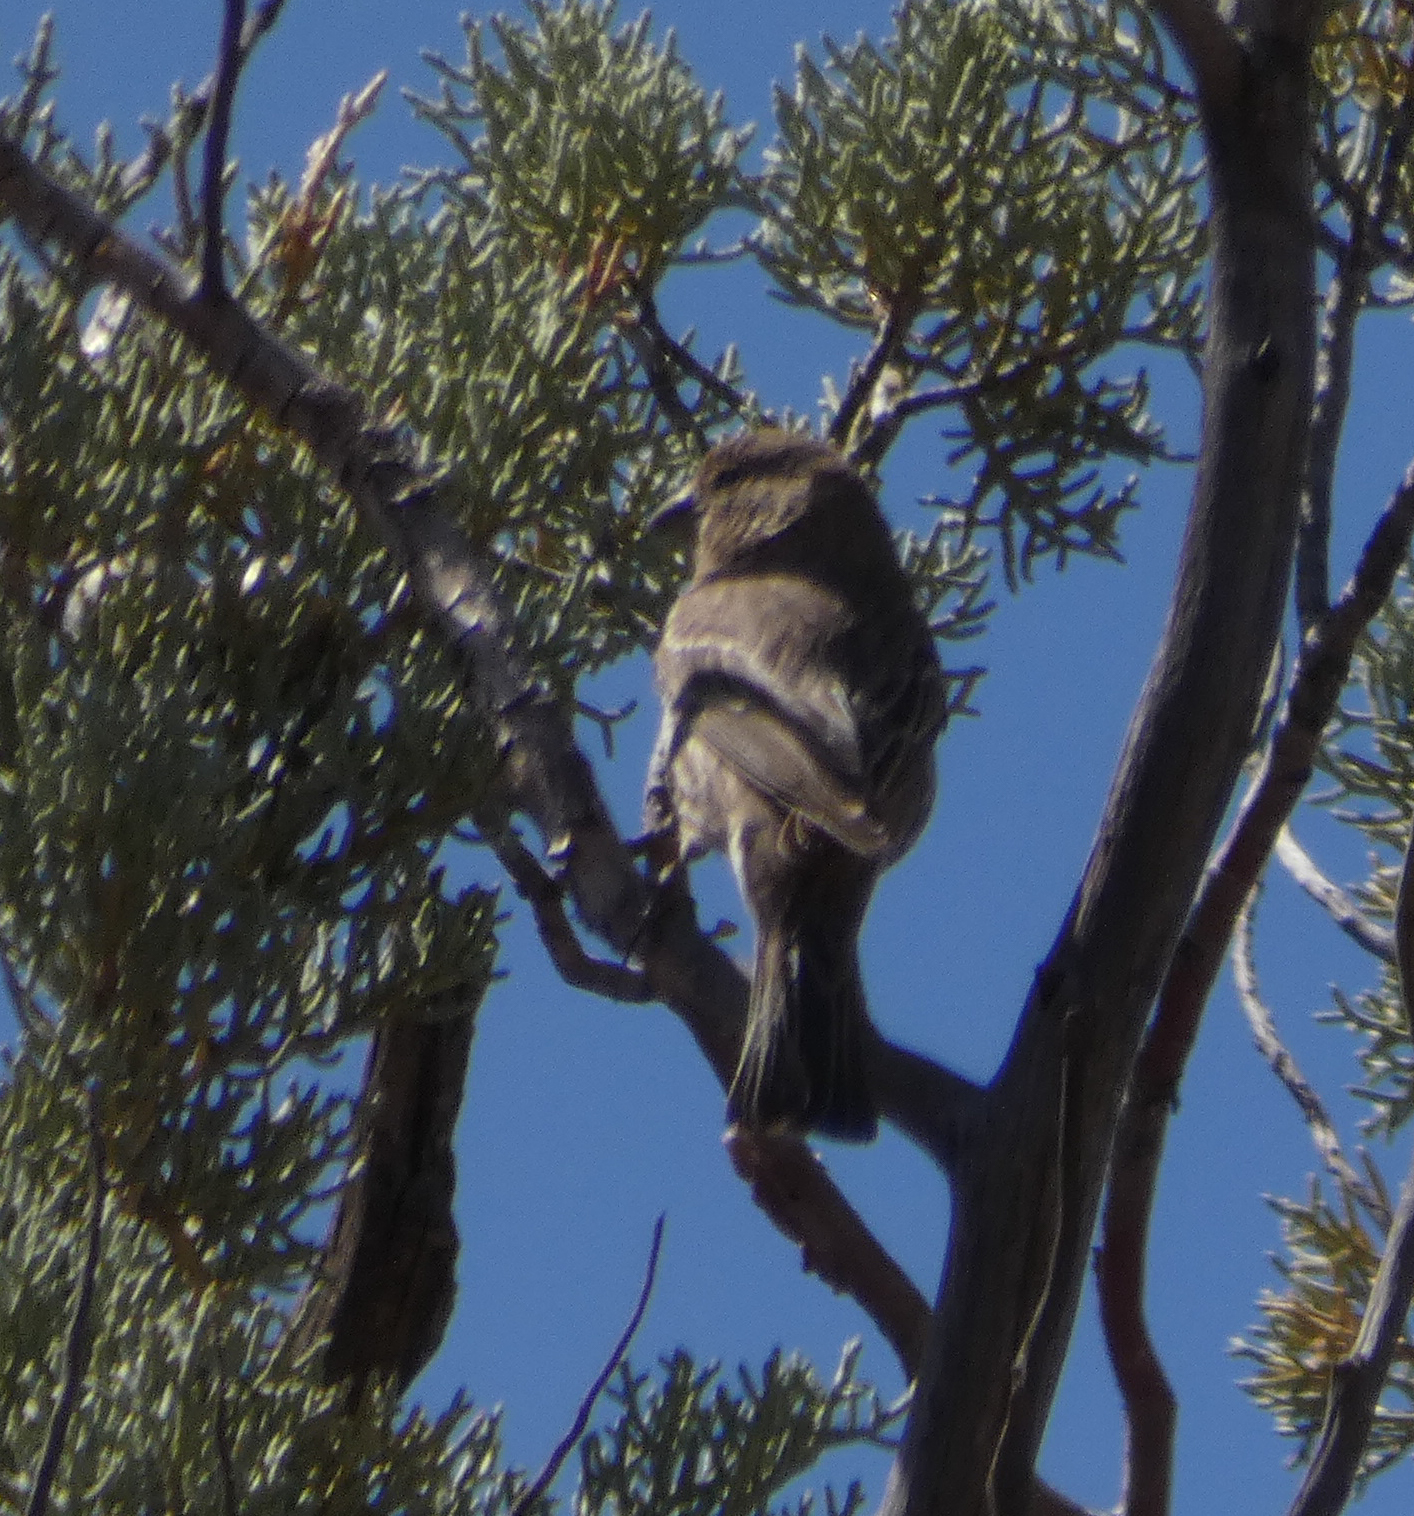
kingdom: Animalia
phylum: Chordata
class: Aves
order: Passeriformes
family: Fringillidae
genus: Haemorhous
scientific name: Haemorhous mexicanus
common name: House finch
